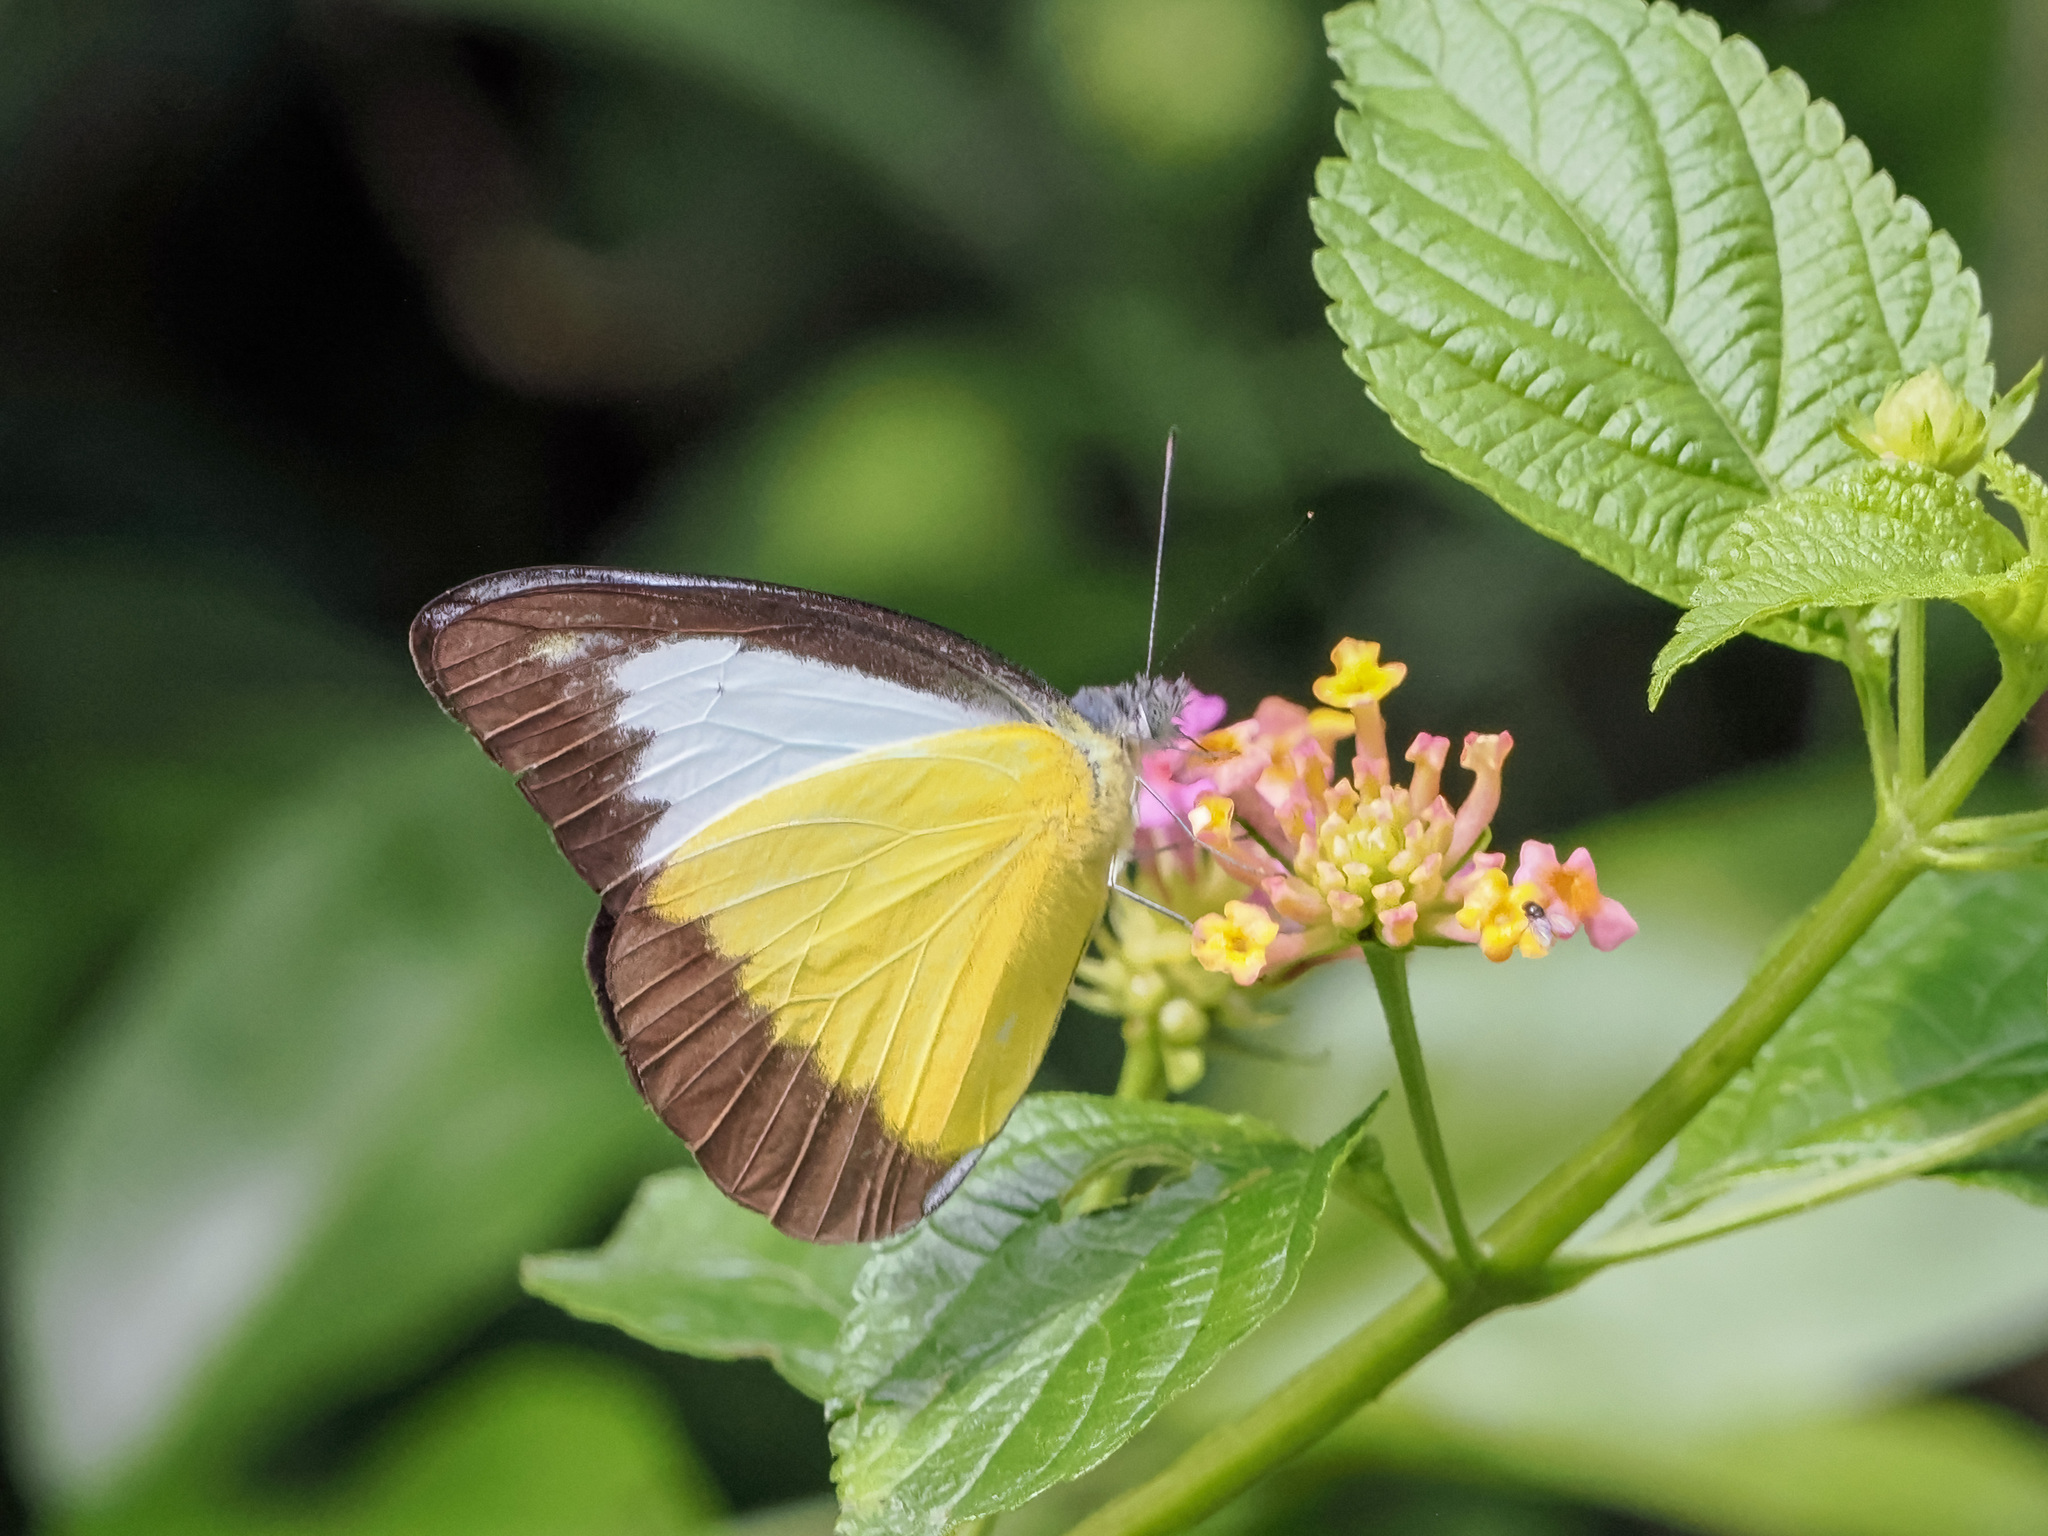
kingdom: Animalia
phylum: Arthropoda
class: Insecta
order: Lepidoptera
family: Pieridae
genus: Appias
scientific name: Appias lyncida
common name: Chocolate albatross
